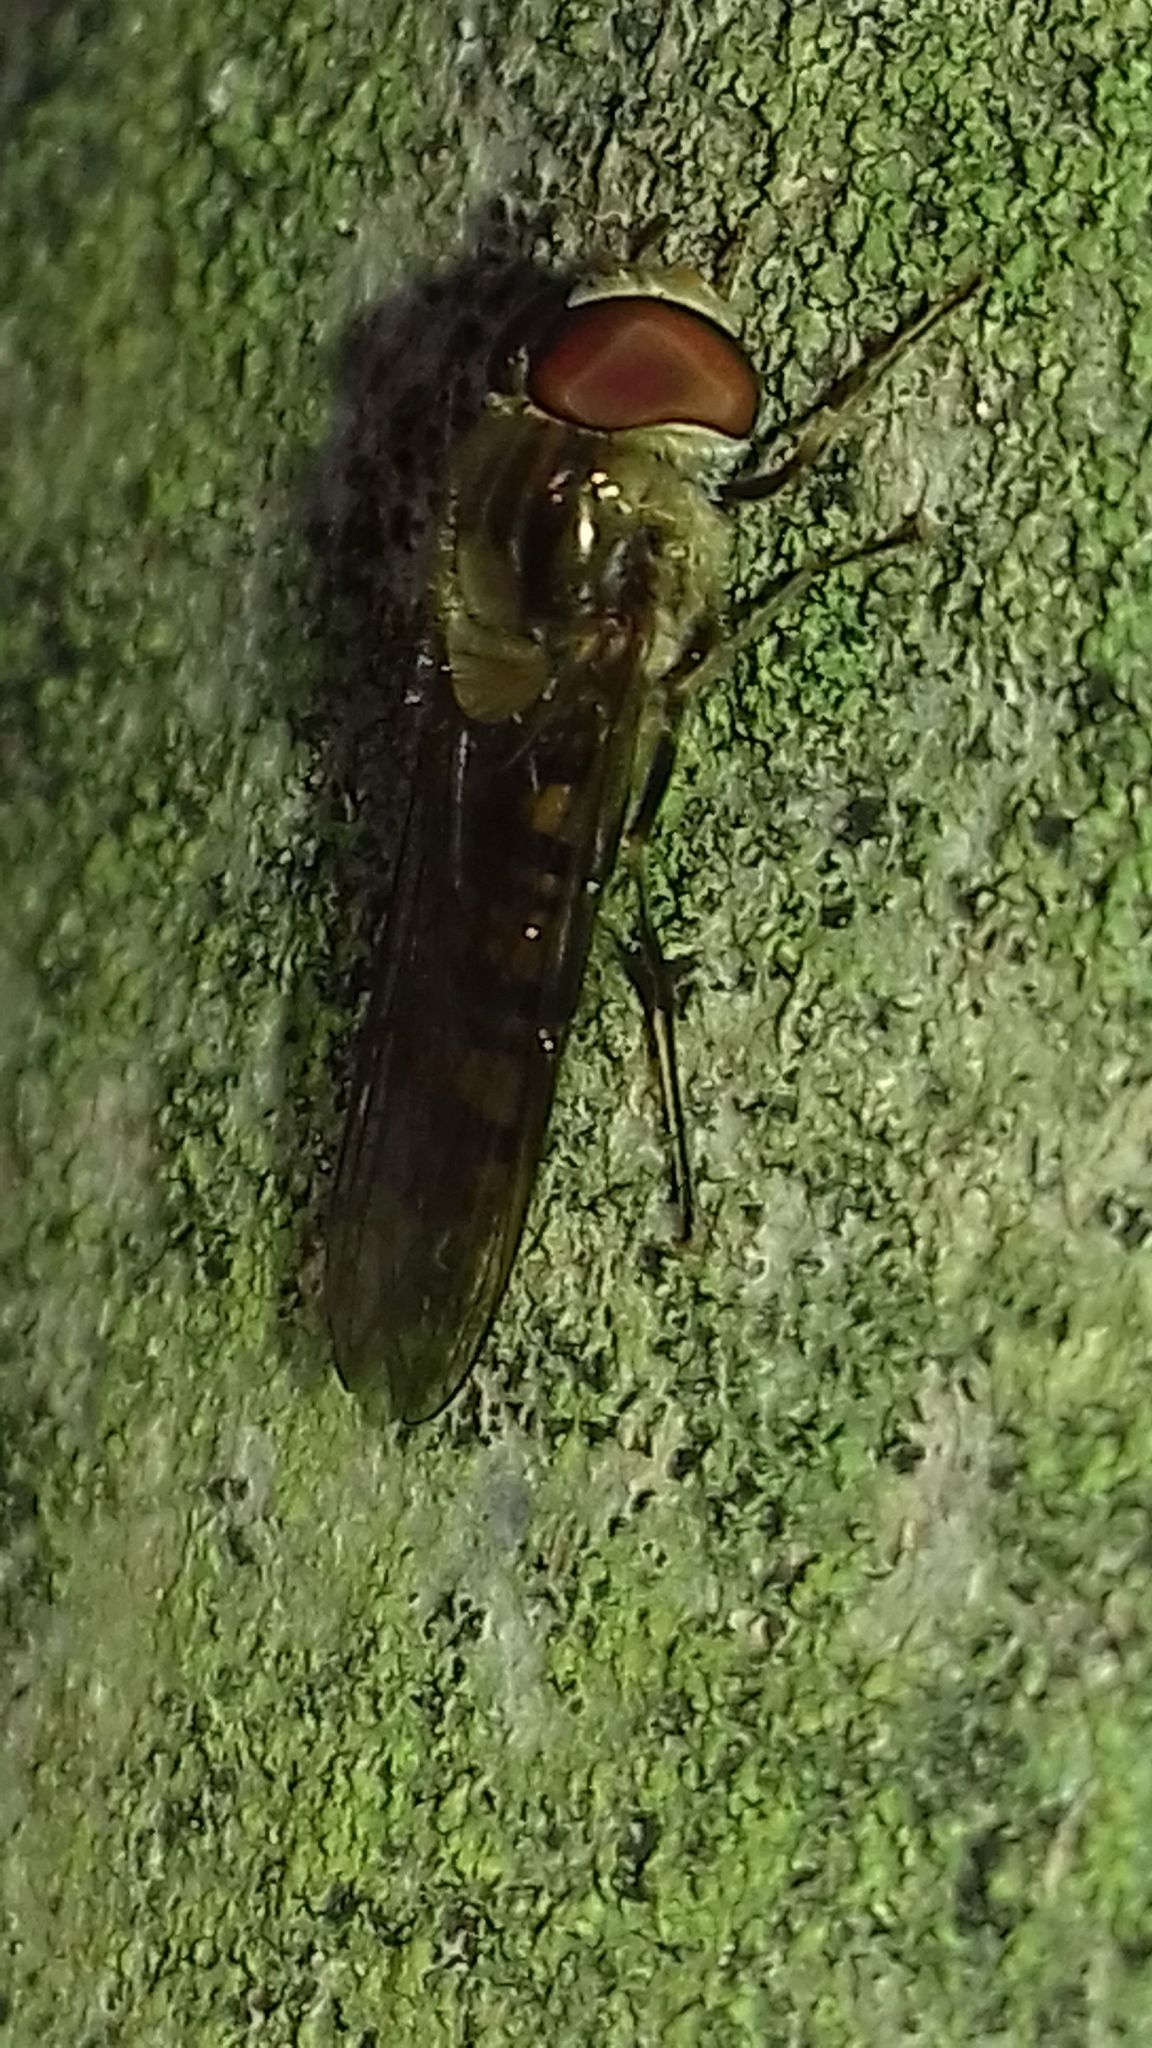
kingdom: Animalia
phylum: Arthropoda
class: Insecta
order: Diptera
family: Syrphidae
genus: Episyrphus
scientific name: Episyrphus balteatus
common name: Marmalade hoverfly
